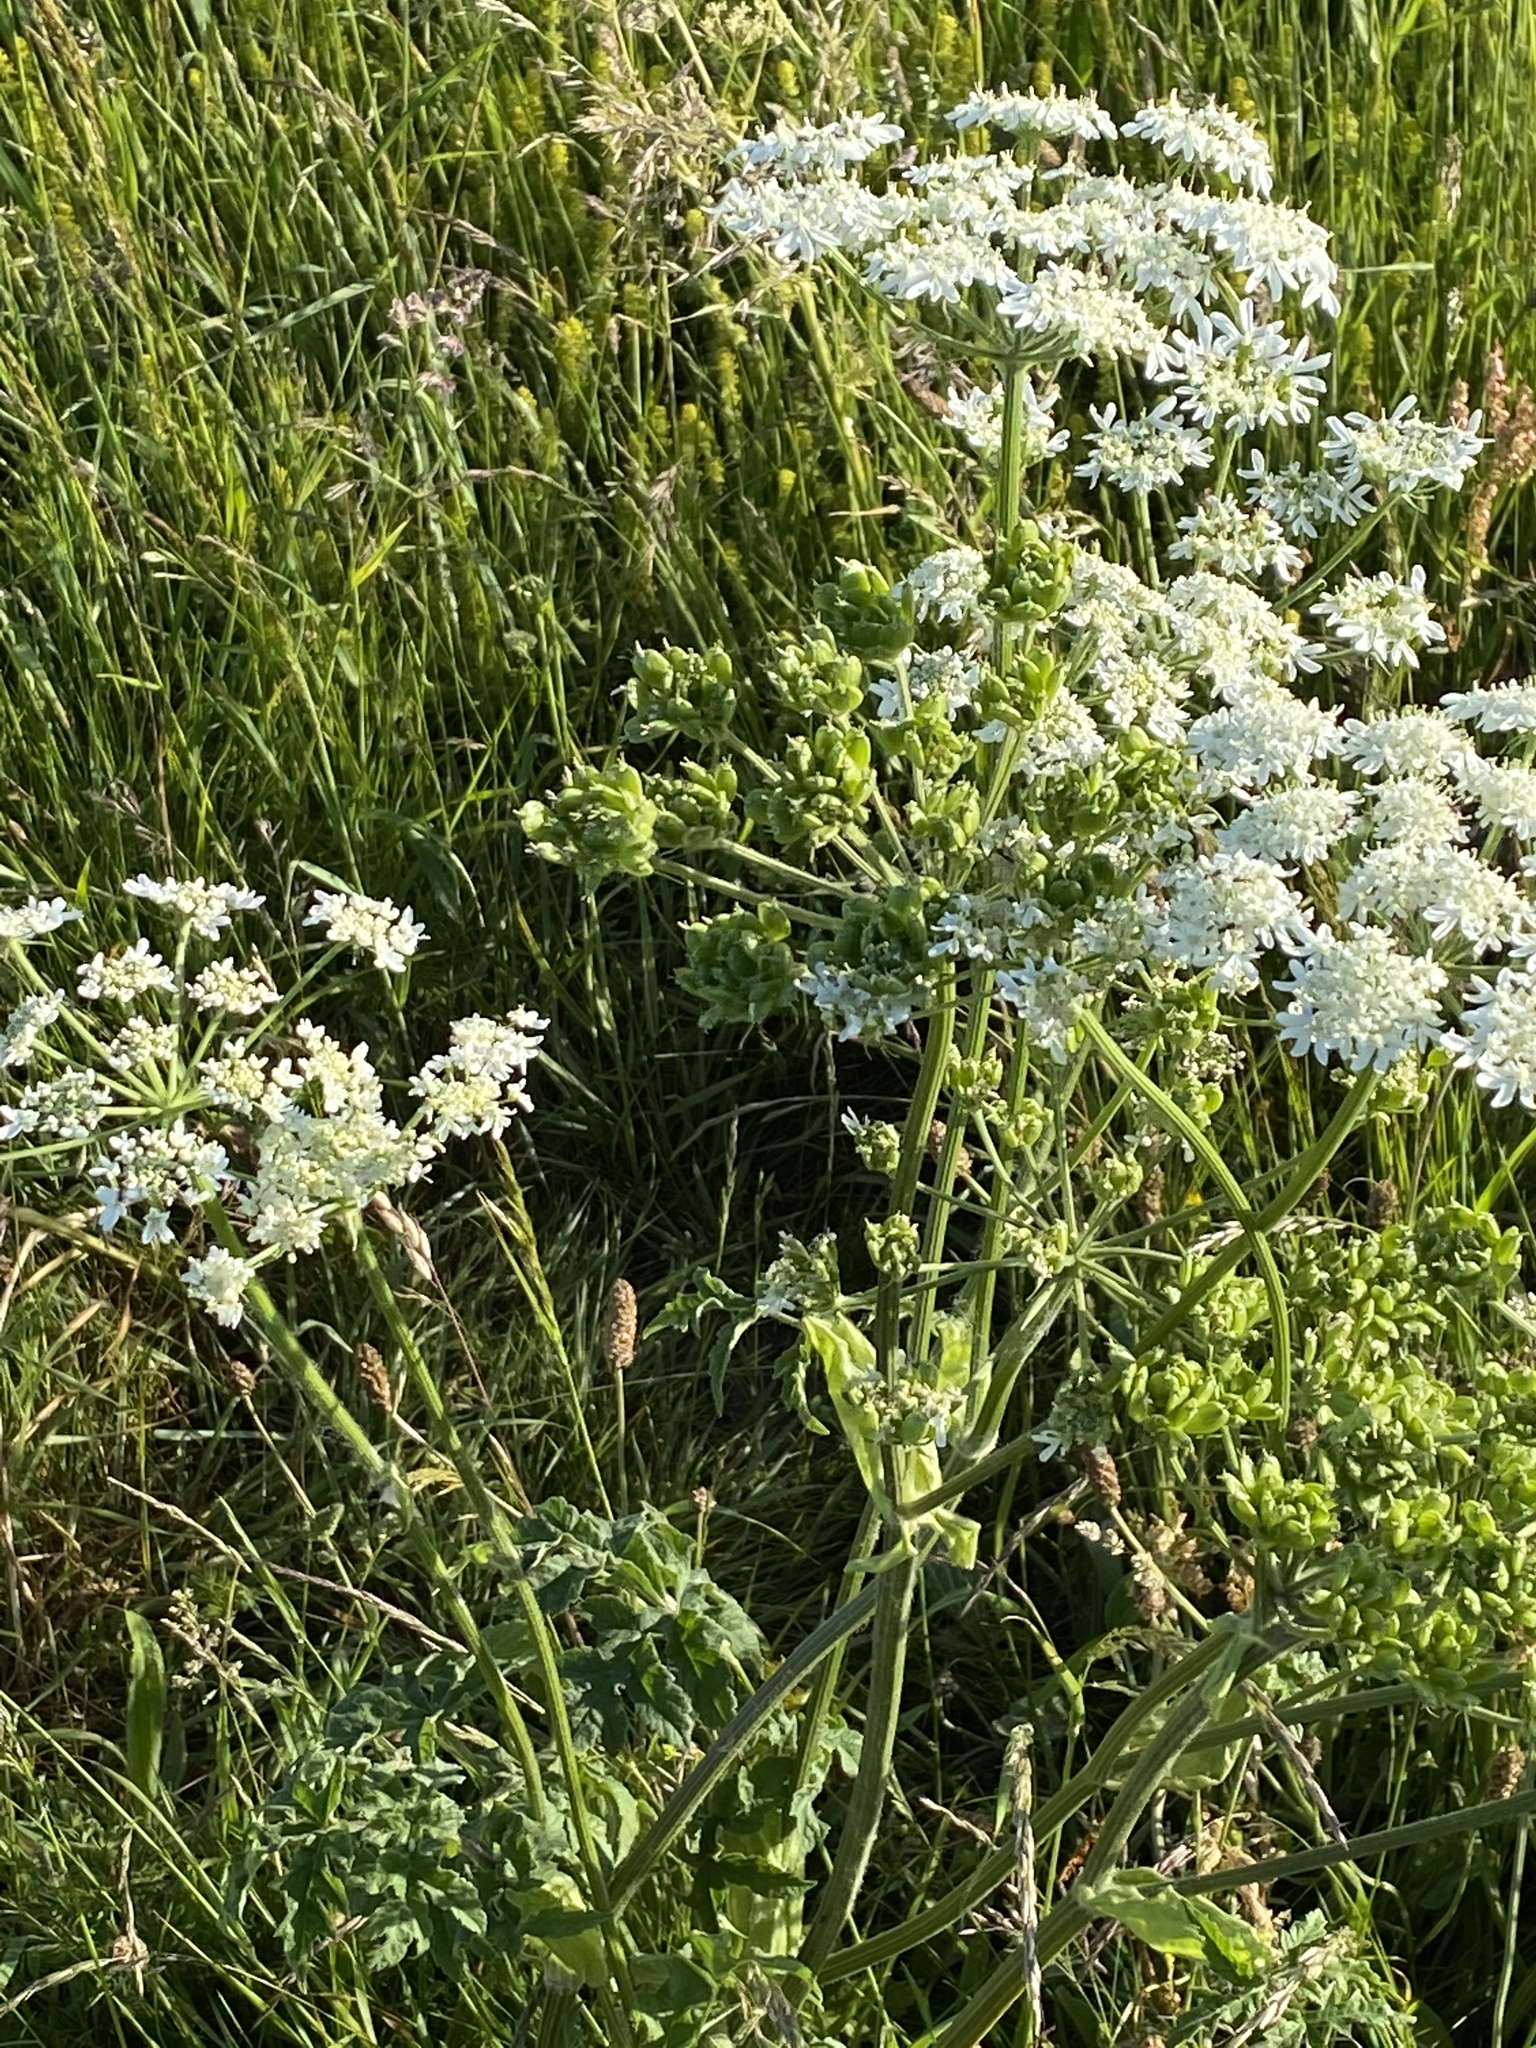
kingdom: Plantae
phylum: Tracheophyta
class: Magnoliopsida
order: Apiales
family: Apiaceae
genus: Heracleum
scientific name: Heracleum sphondylium
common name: Hogweed
